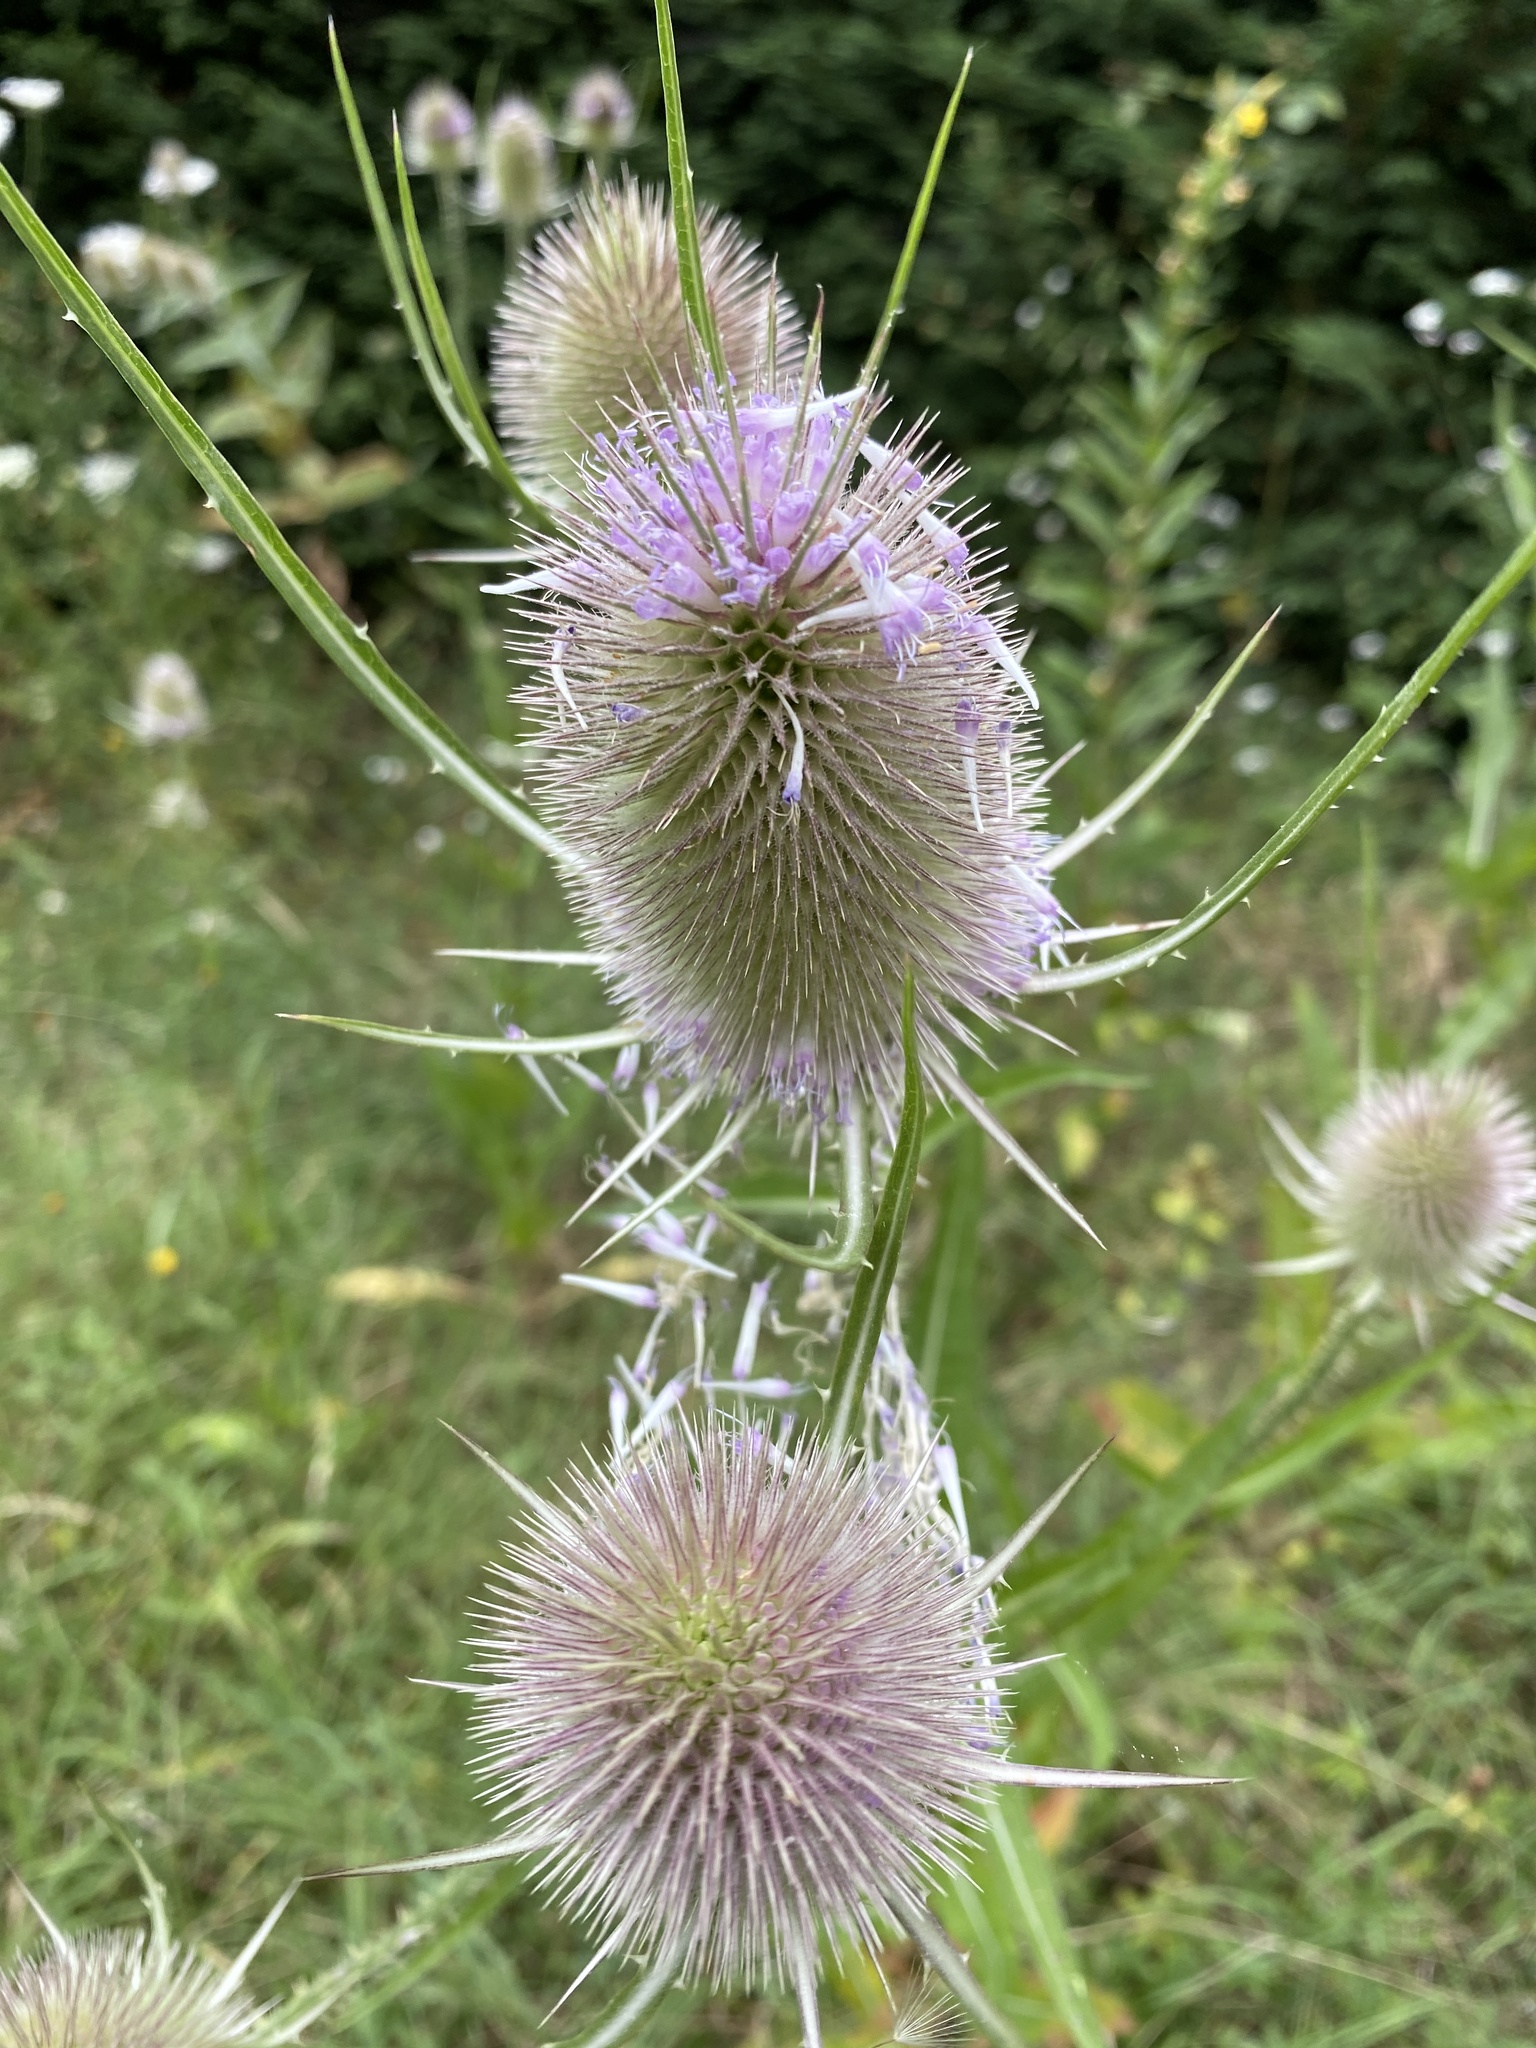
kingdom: Plantae
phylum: Tracheophyta
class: Magnoliopsida
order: Dipsacales
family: Caprifoliaceae
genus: Dipsacus
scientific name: Dipsacus fullonum
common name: Teasel
